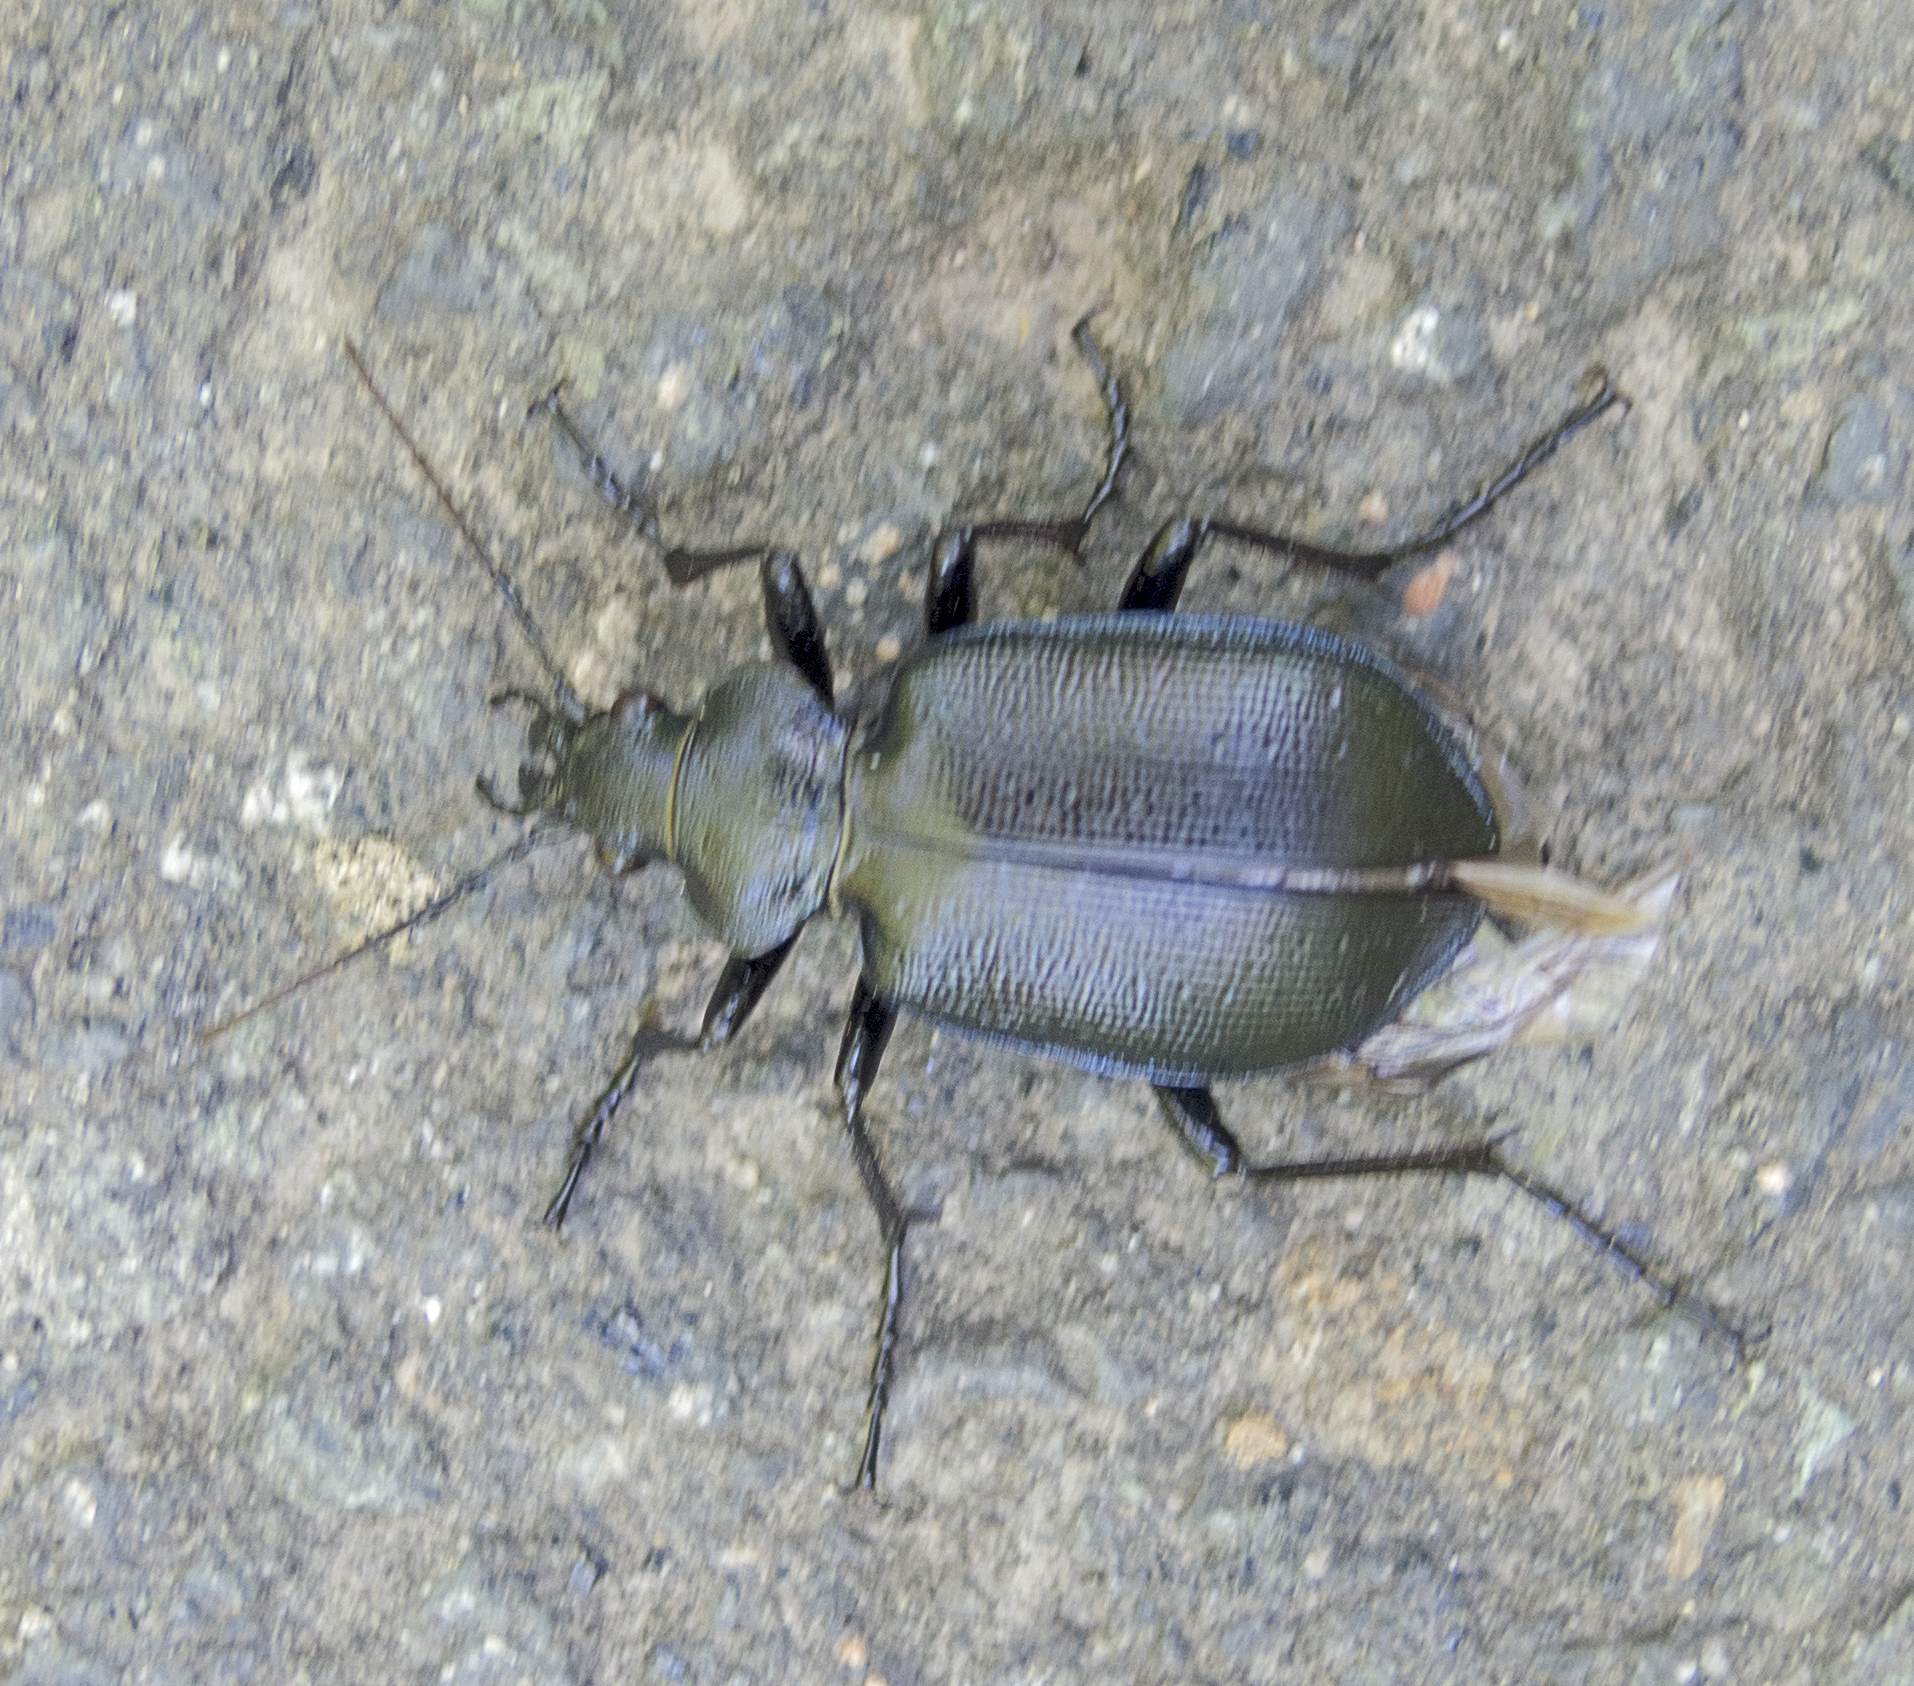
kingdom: Animalia
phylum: Arthropoda
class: Insecta
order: Coleoptera
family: Carabidae
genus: Calosoma
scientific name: Calosoma inquisitor
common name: Caterpillar-hunter
